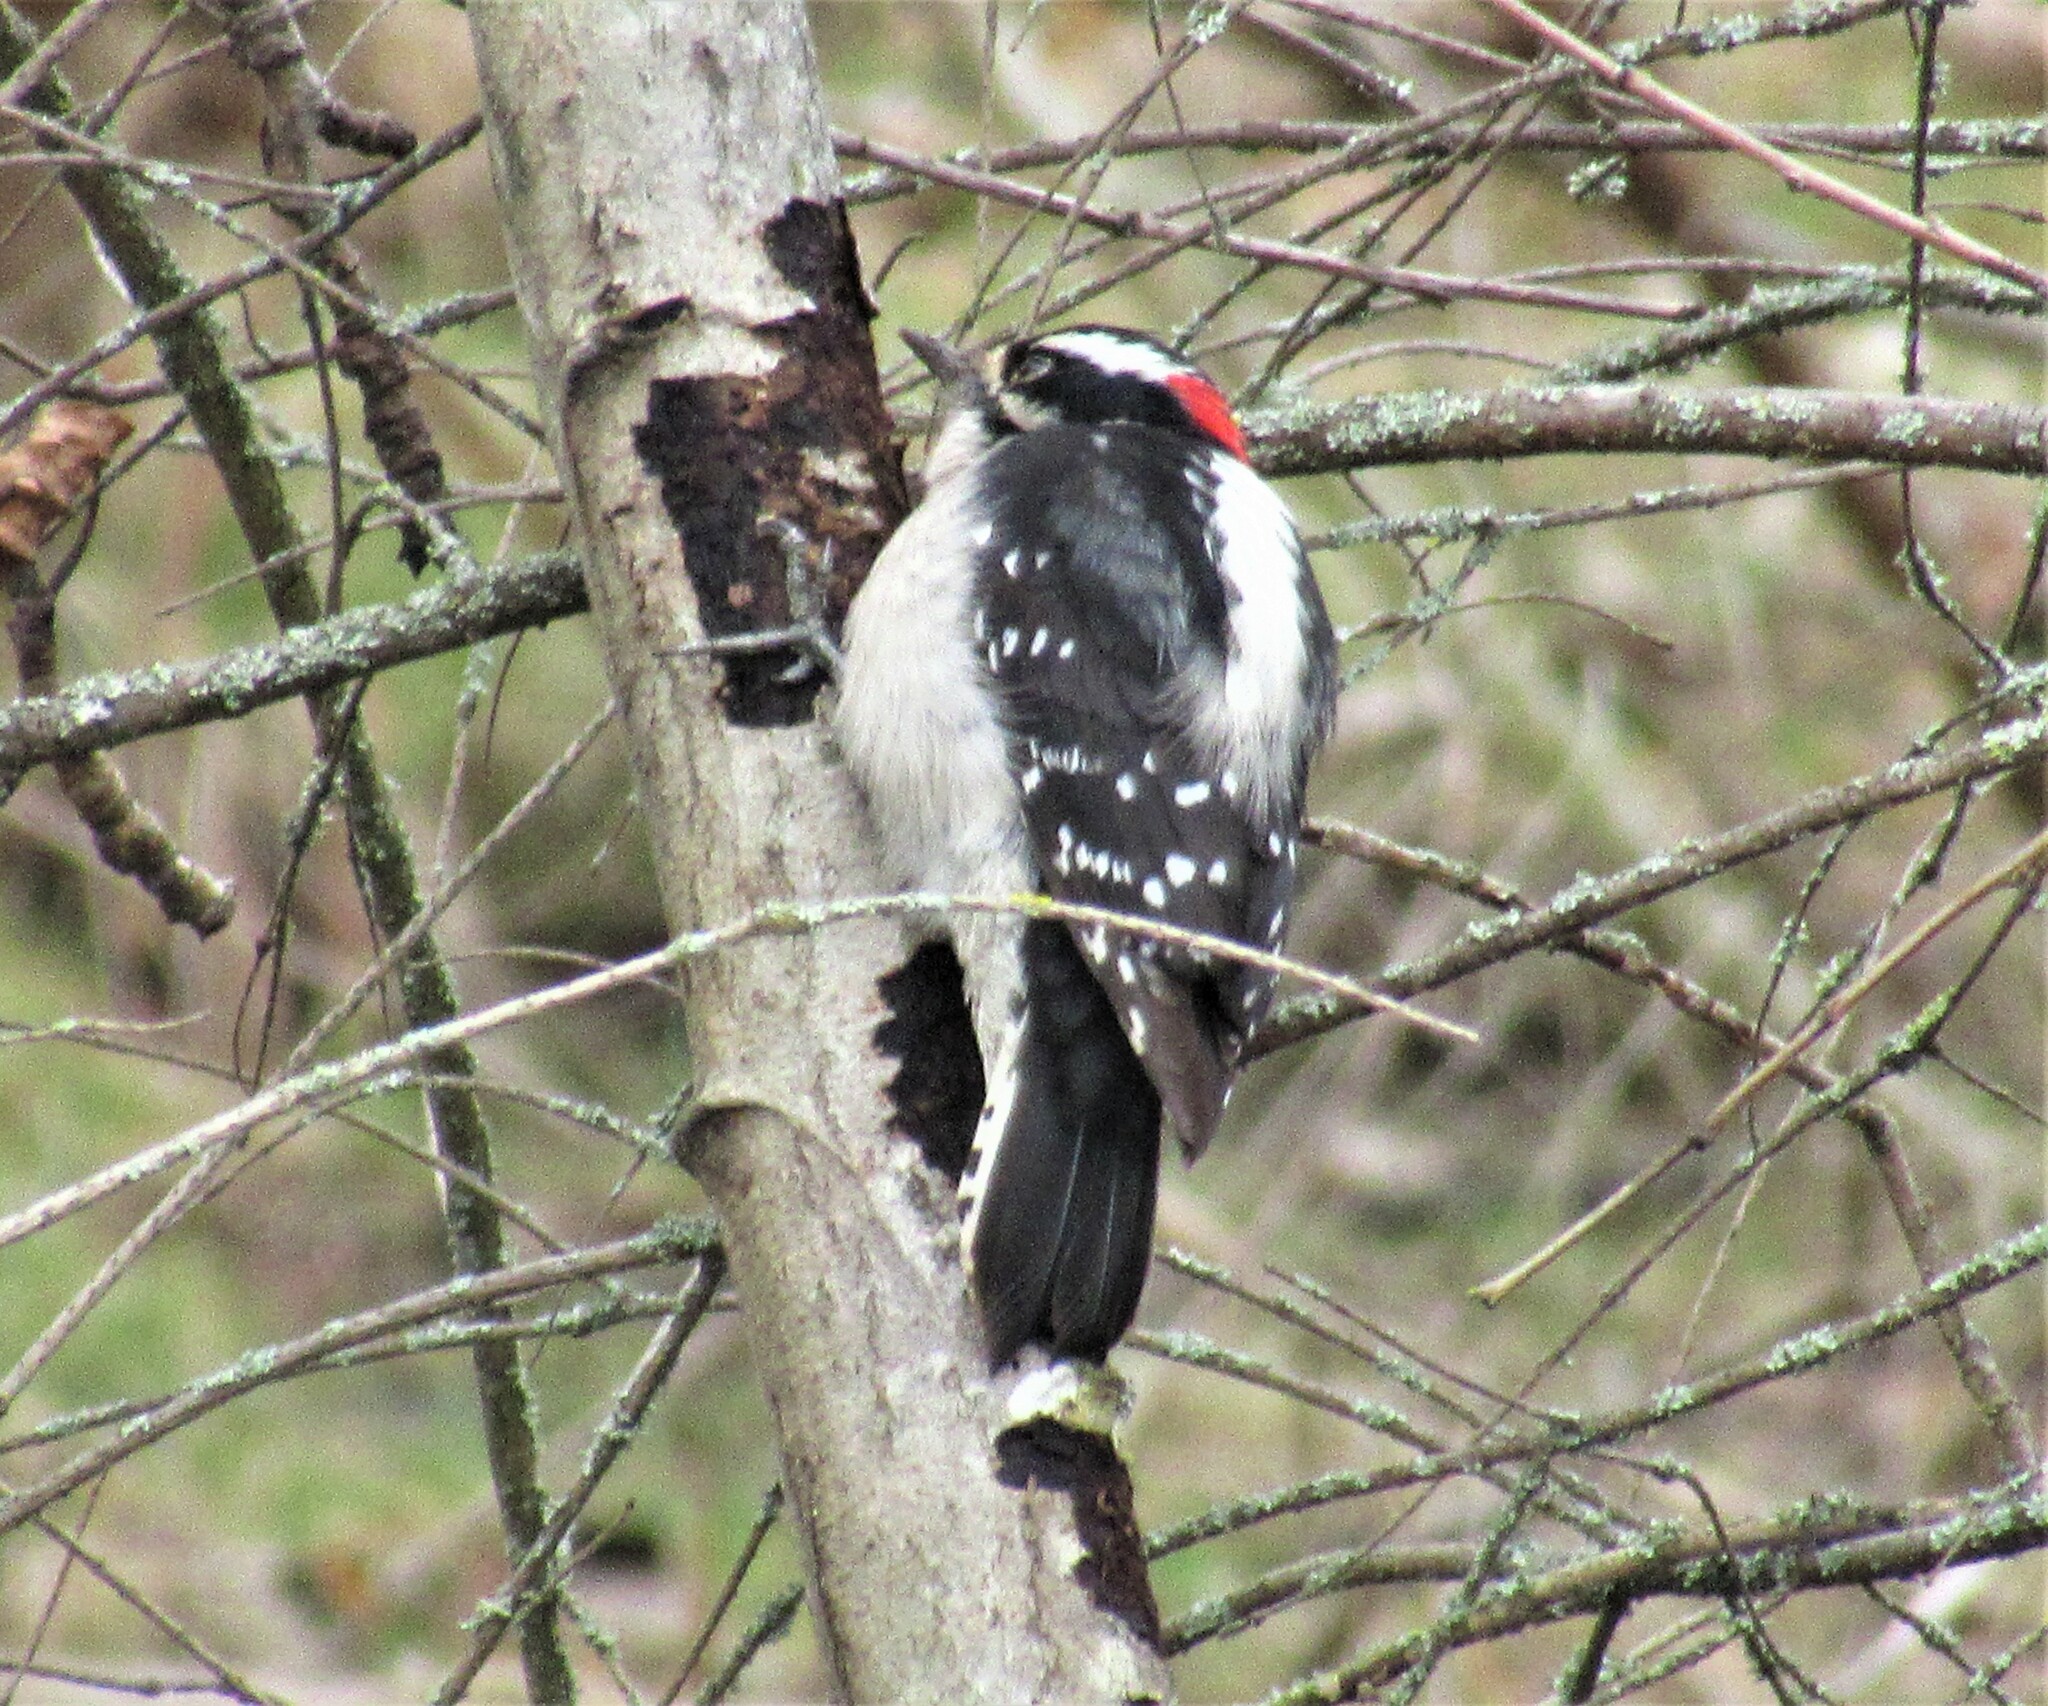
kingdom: Animalia
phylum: Chordata
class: Aves
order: Piciformes
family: Picidae
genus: Dryobates
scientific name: Dryobates pubescens
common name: Downy woodpecker
